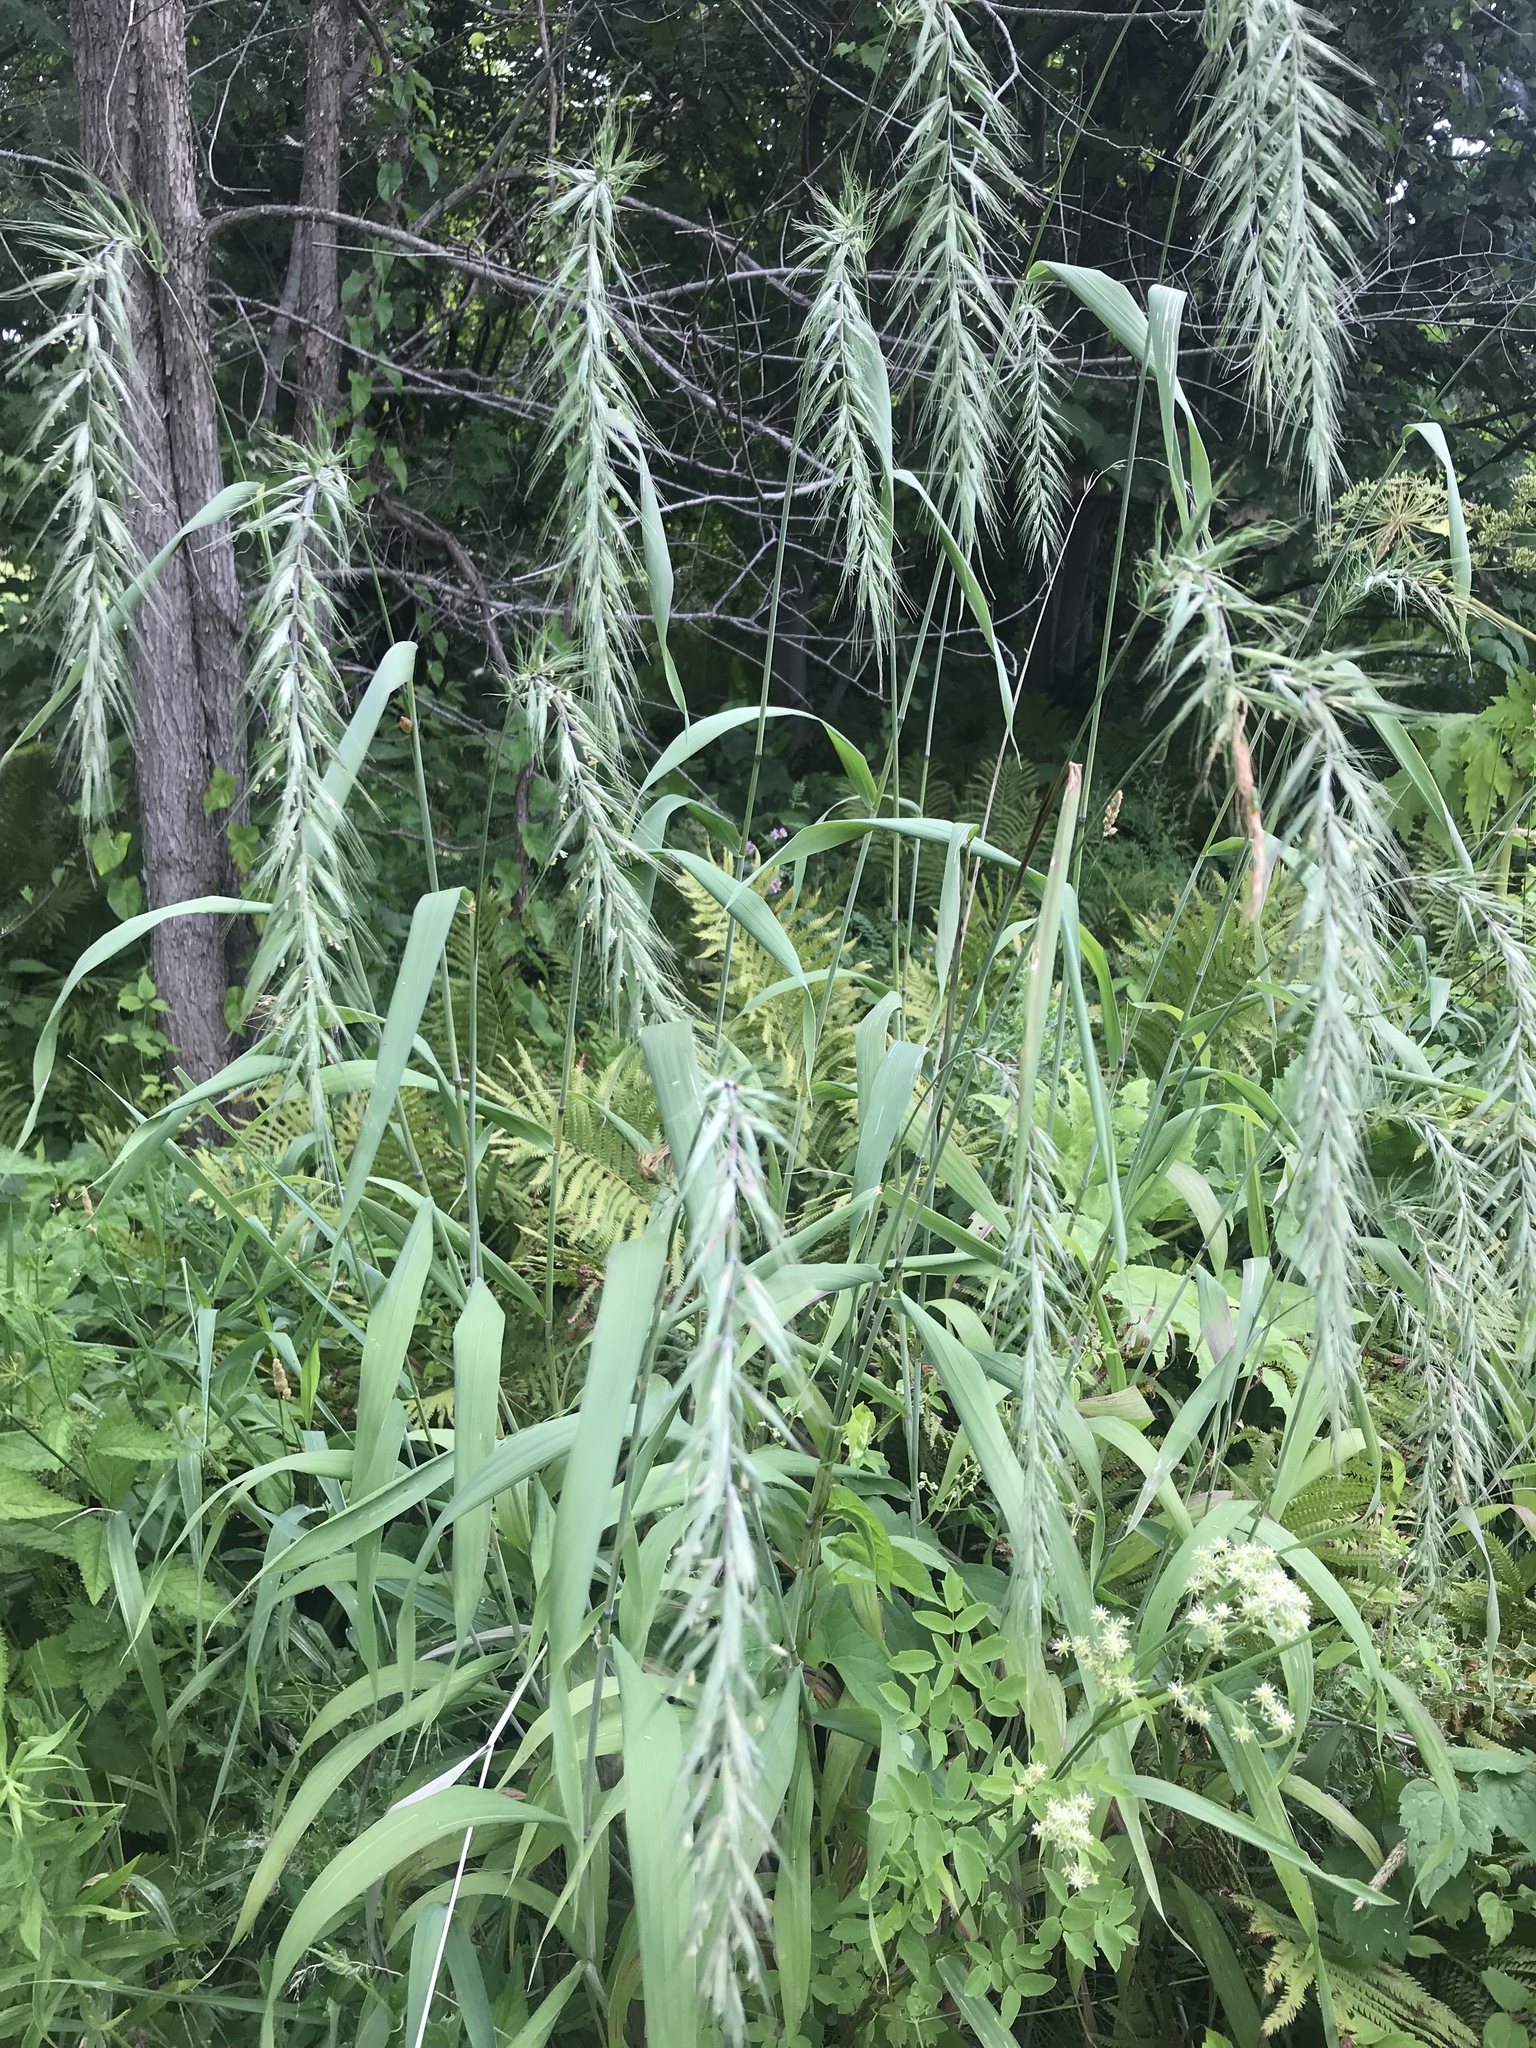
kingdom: Plantae
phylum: Tracheophyta
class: Liliopsida
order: Poales
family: Poaceae
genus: Elymus
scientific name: Elymus canadensis
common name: Canada wild rye
